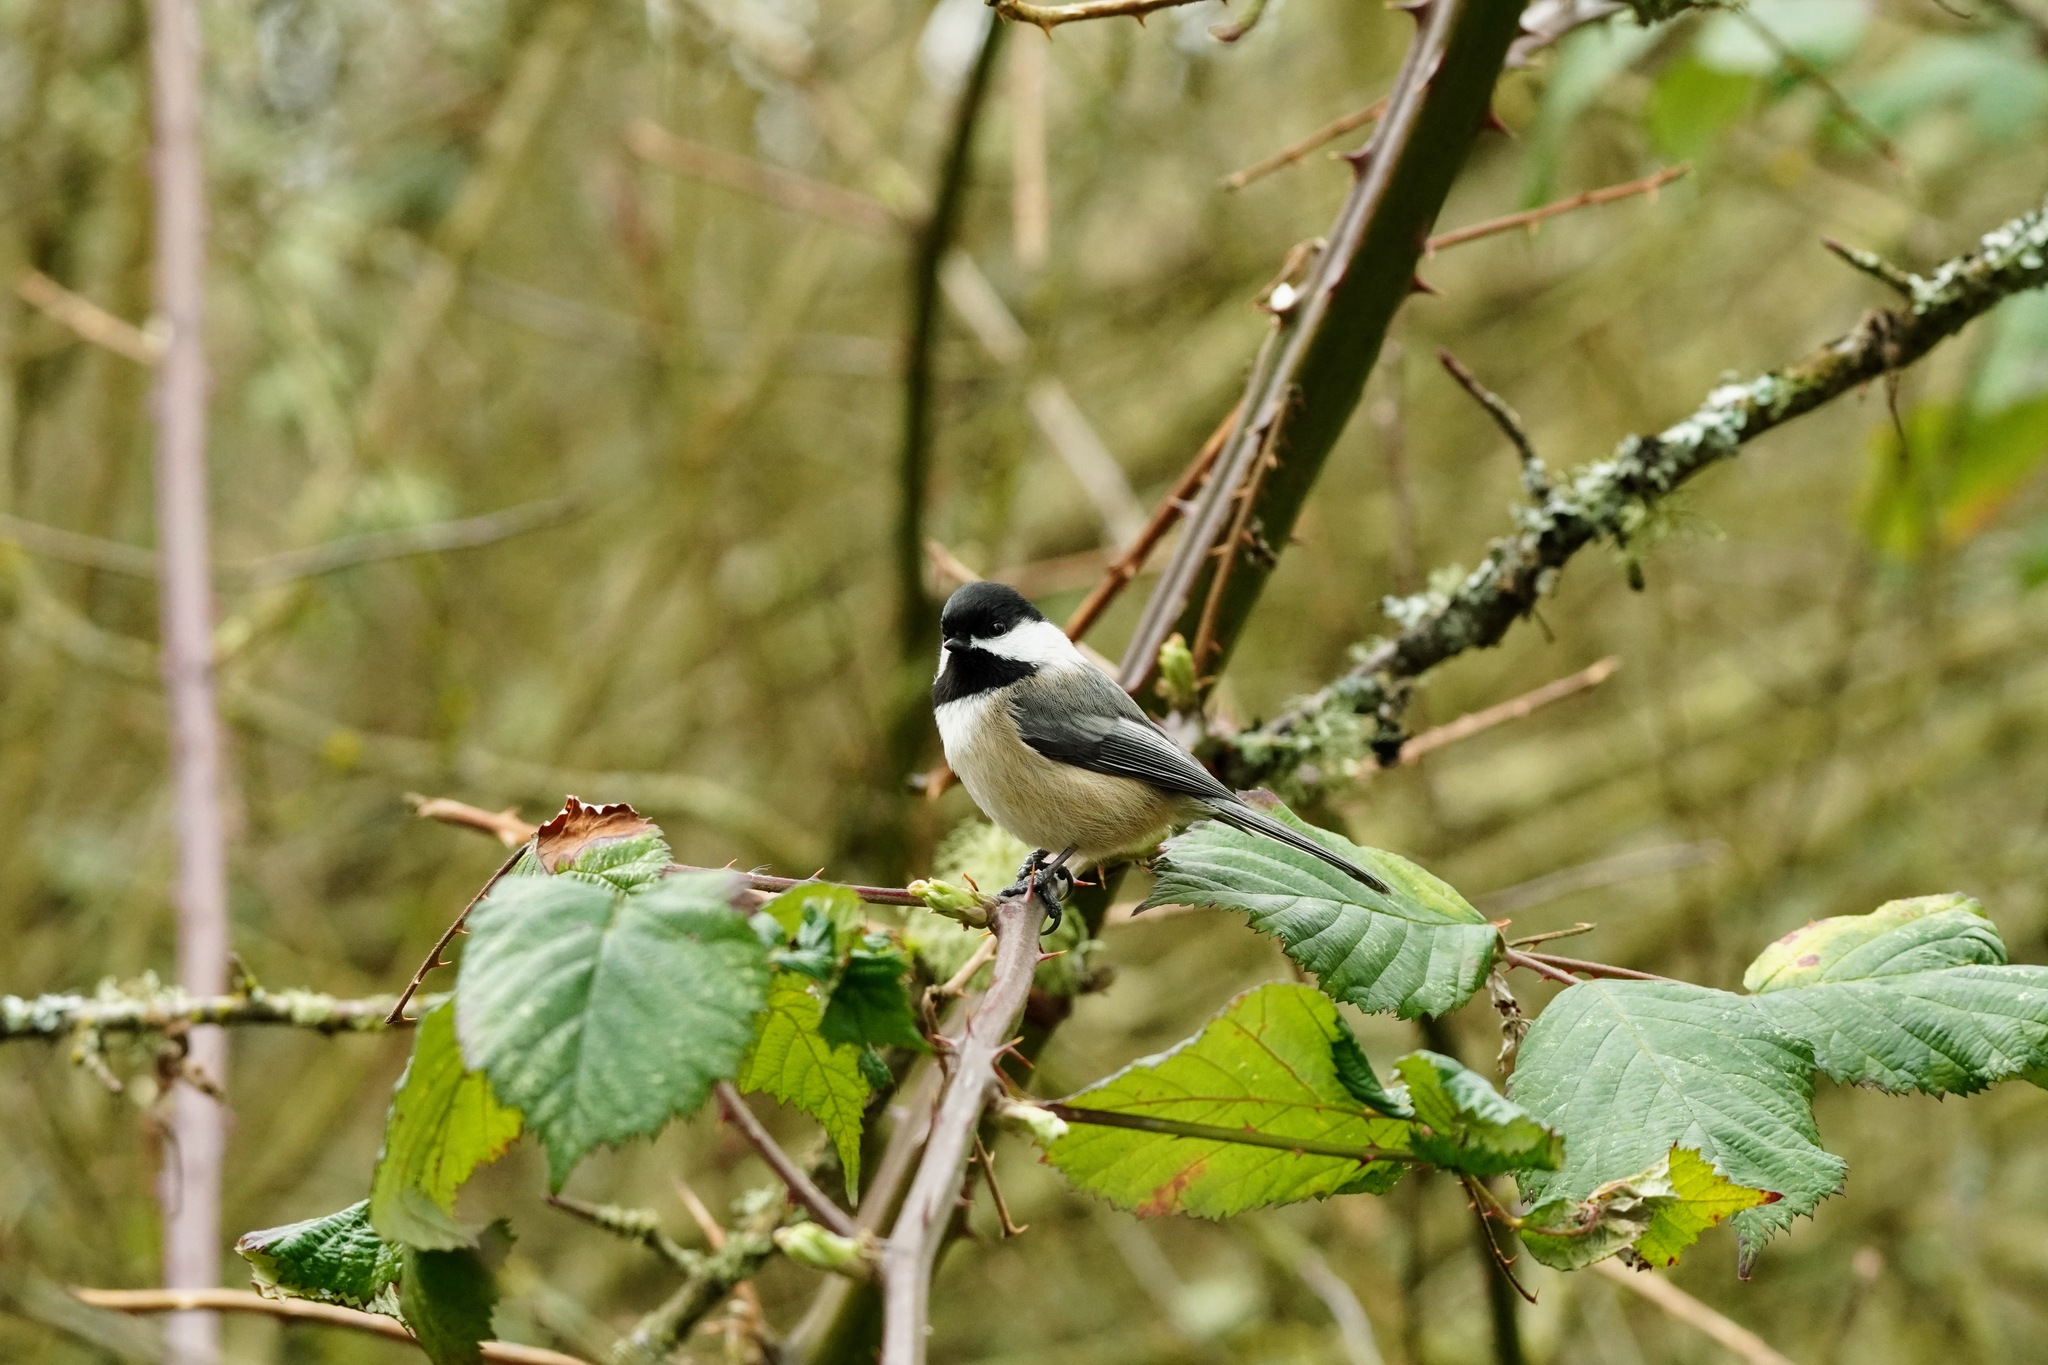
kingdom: Animalia
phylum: Chordata
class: Aves
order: Passeriformes
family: Paridae
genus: Poecile
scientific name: Poecile atricapillus
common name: Black-capped chickadee
